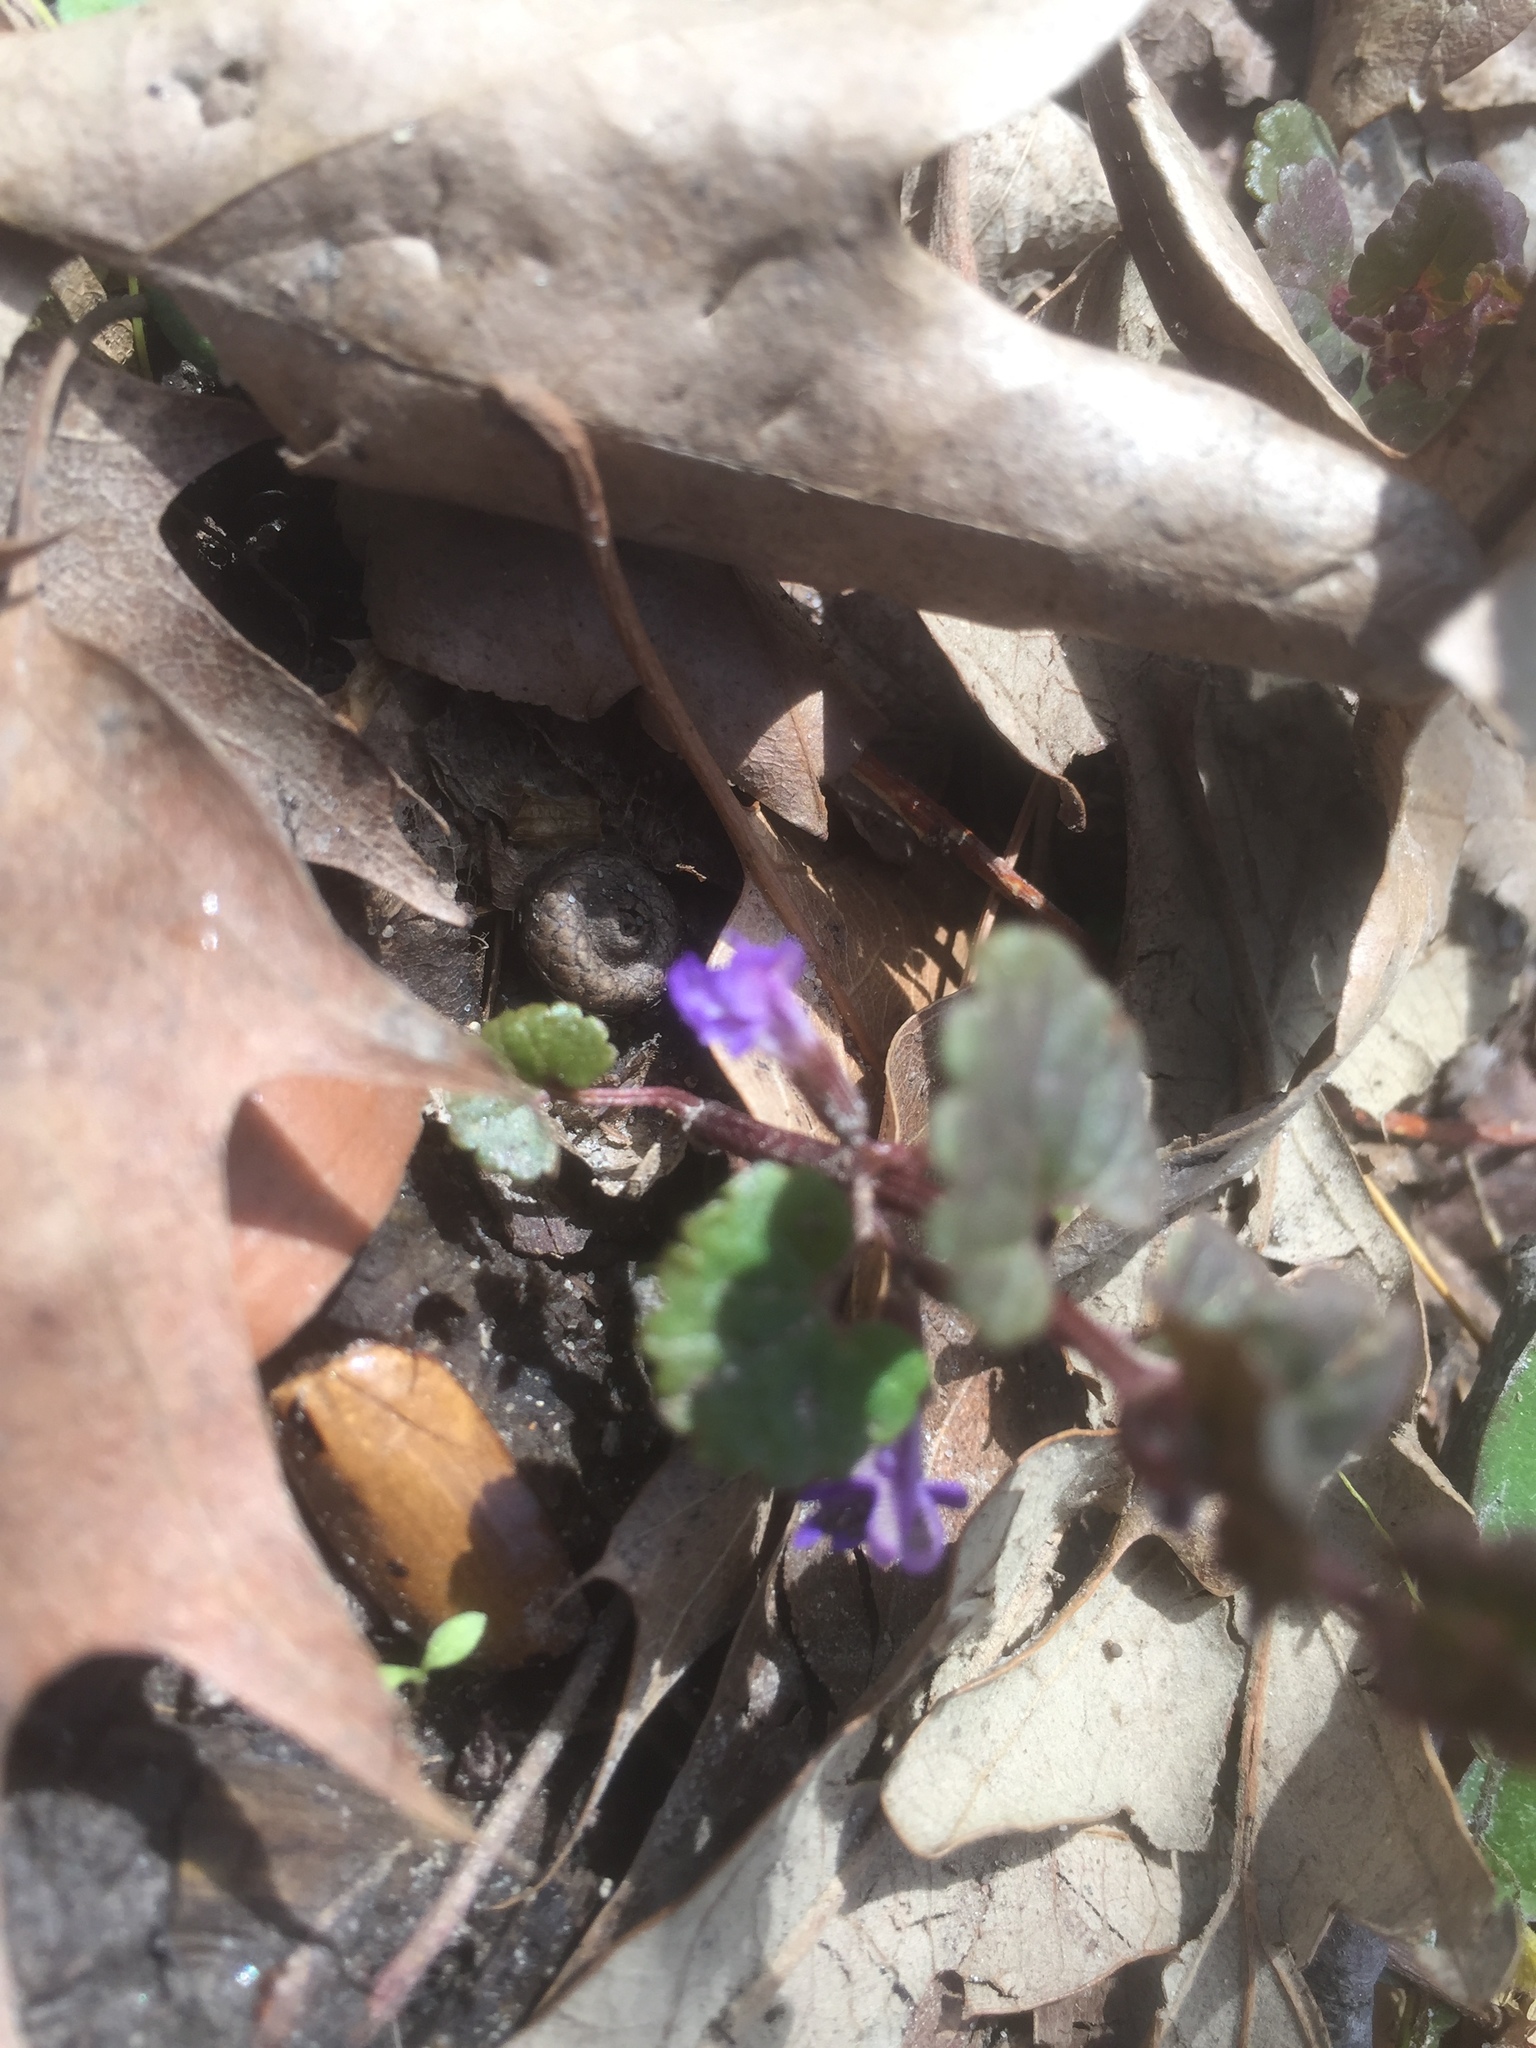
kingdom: Plantae
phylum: Tracheophyta
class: Magnoliopsida
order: Lamiales
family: Lamiaceae
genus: Glechoma
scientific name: Glechoma hederacea
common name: Ground ivy
